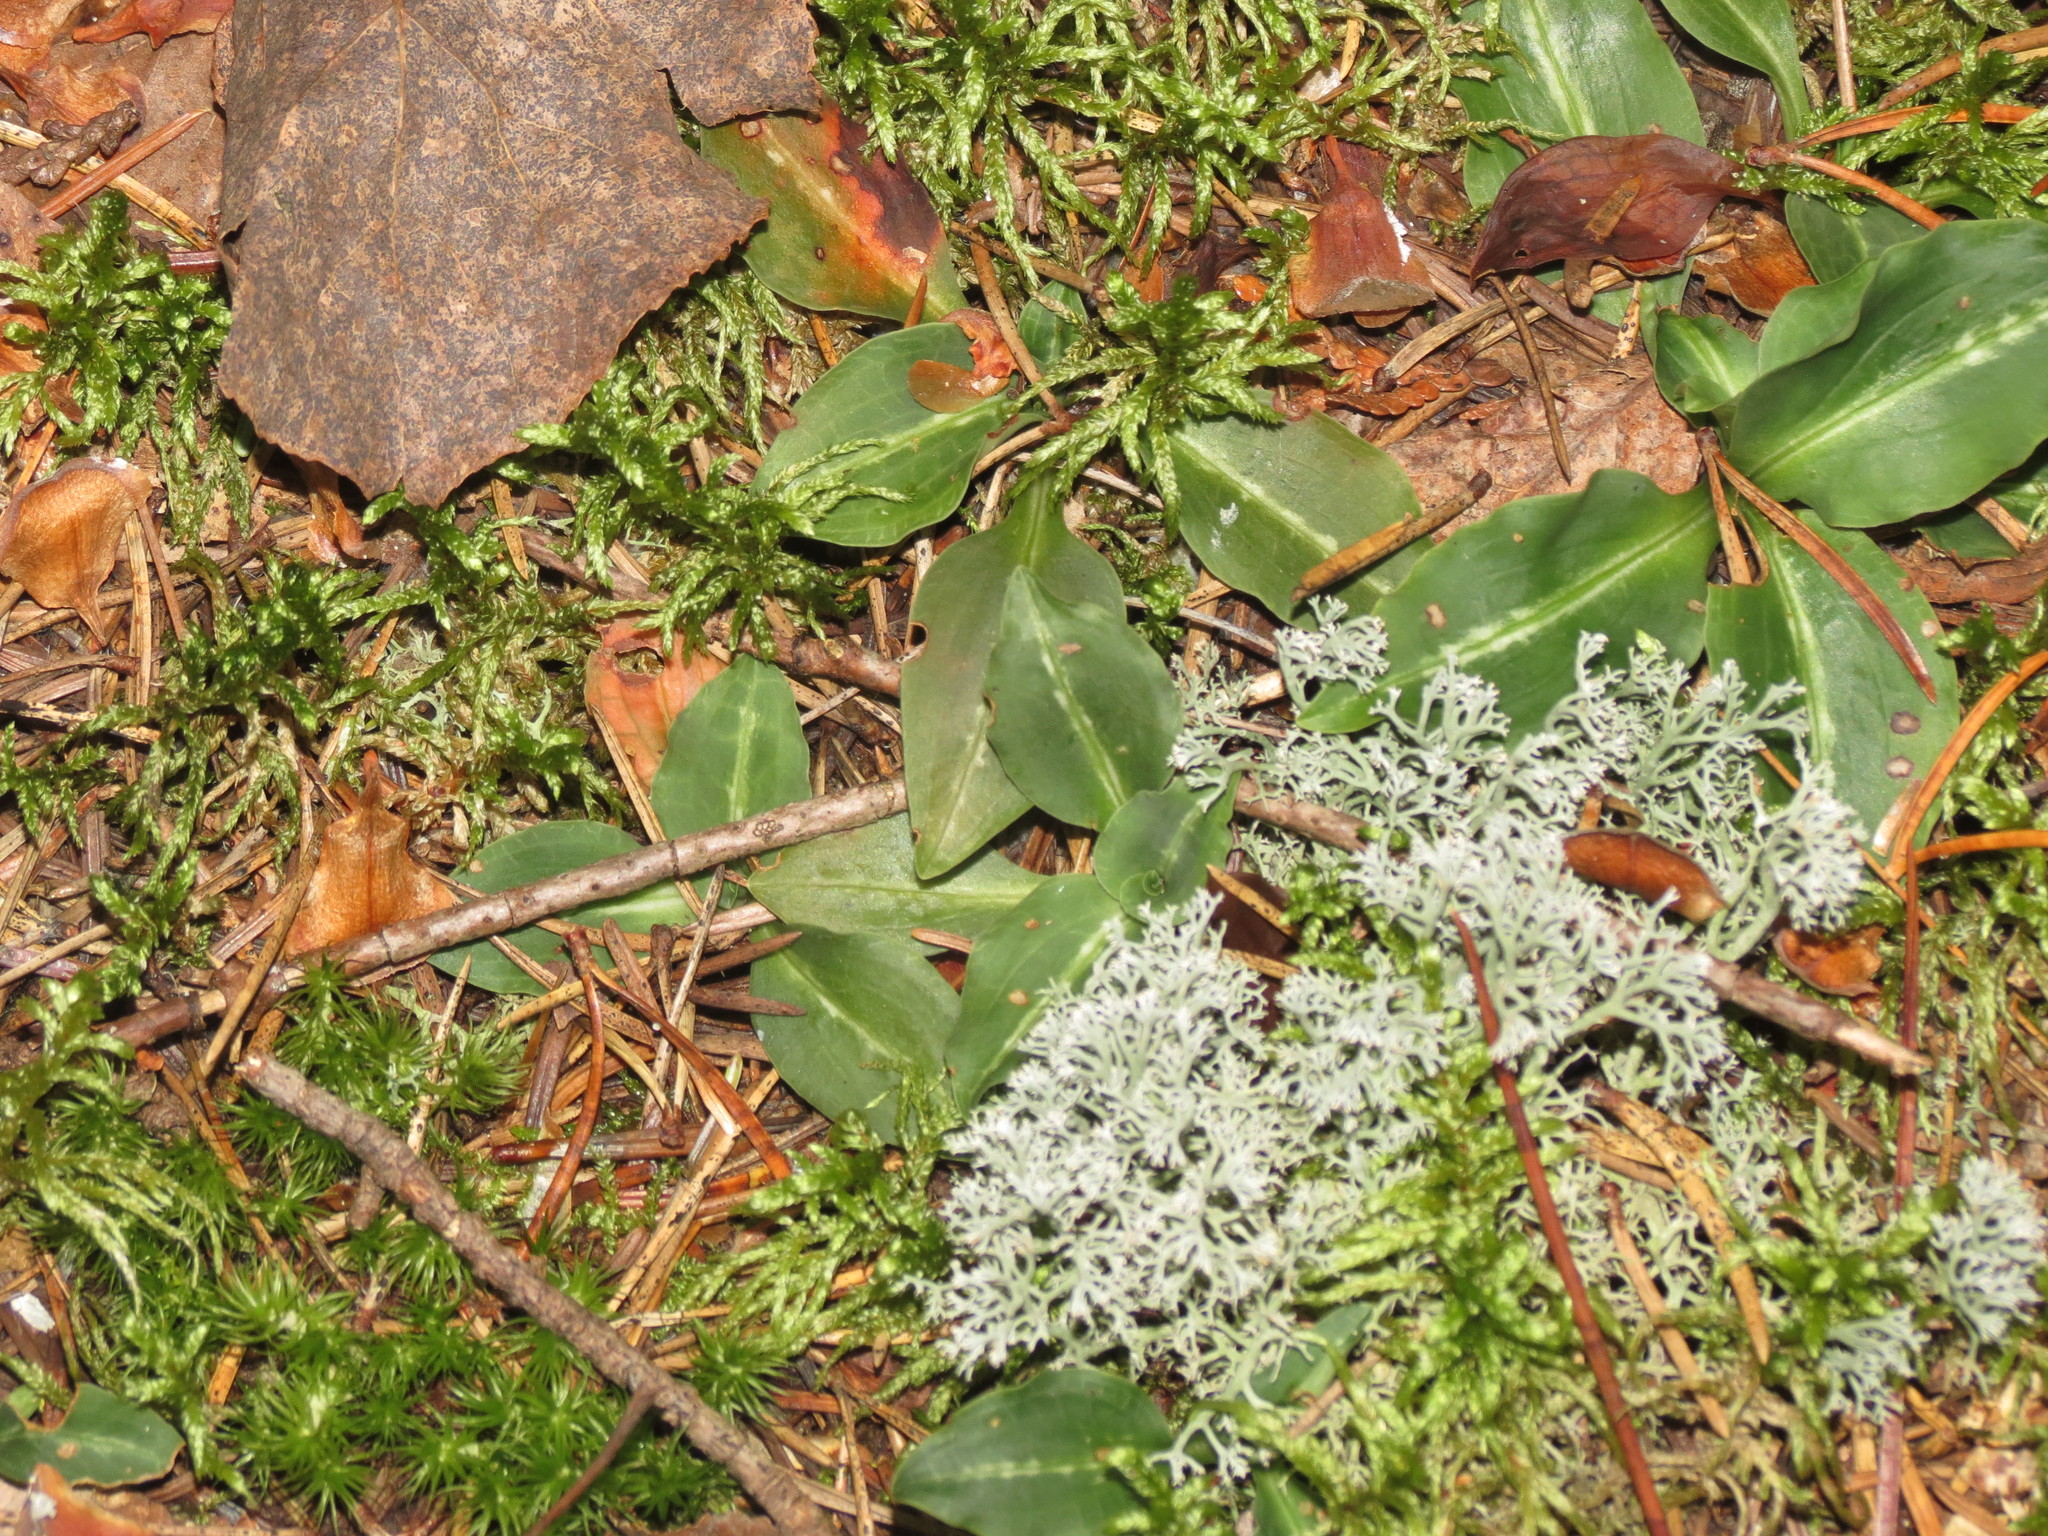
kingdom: Plantae
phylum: Tracheophyta
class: Liliopsida
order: Asparagales
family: Orchidaceae
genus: Goodyera
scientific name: Goodyera oblongifolia
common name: Giant rattlesnake-plantain
